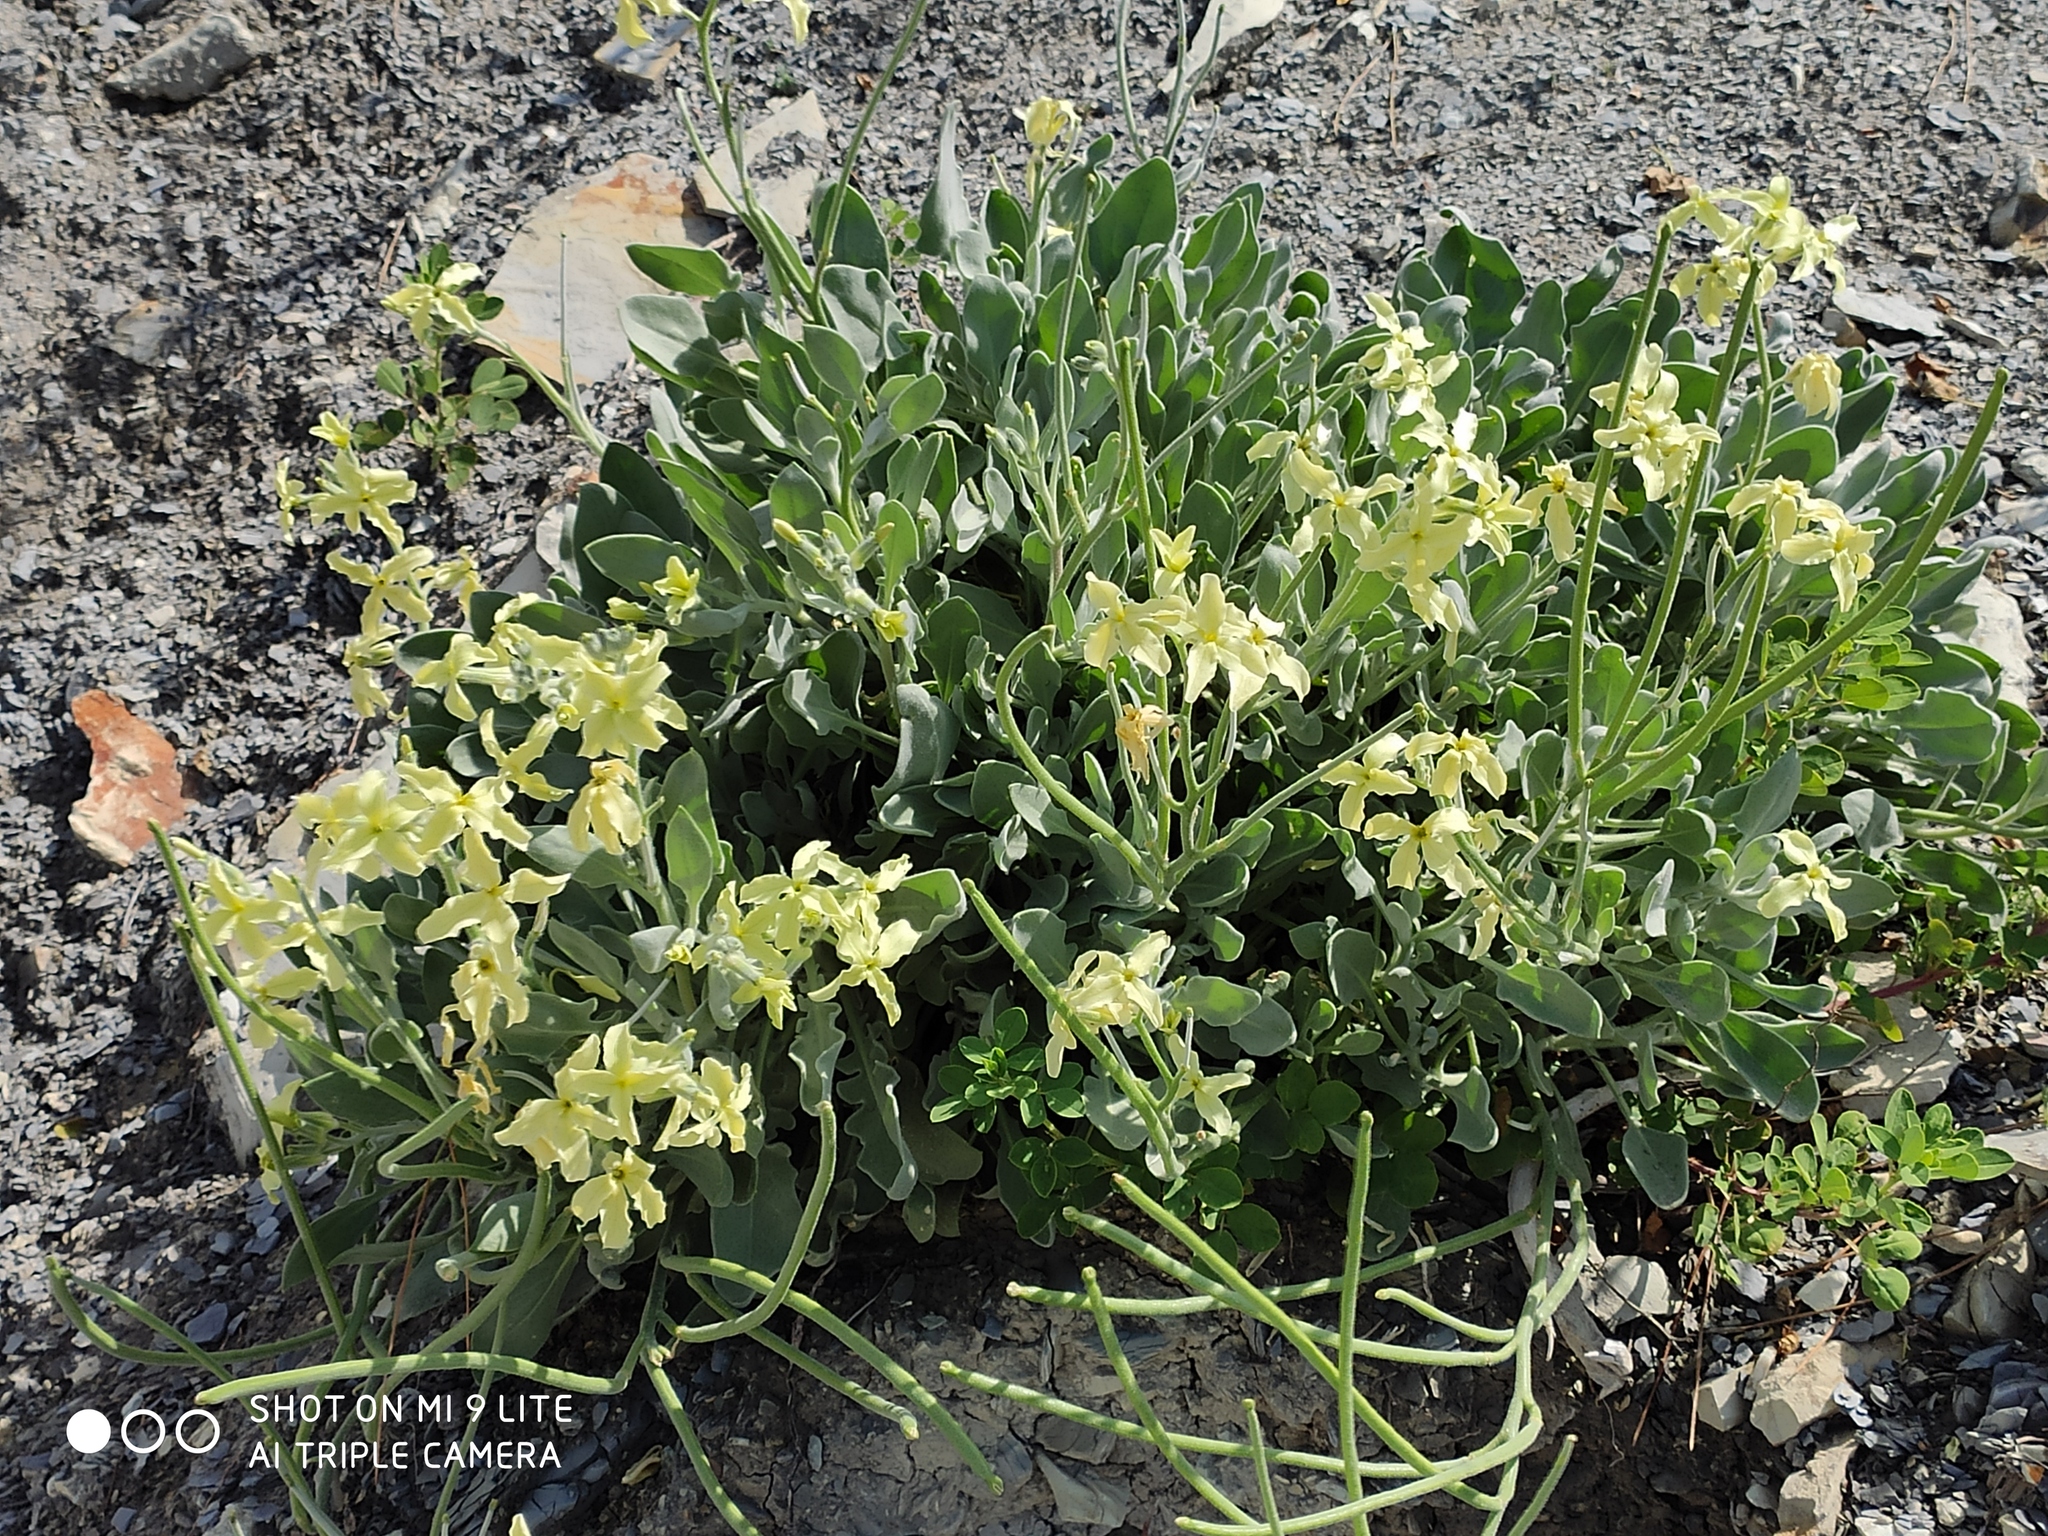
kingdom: Plantae
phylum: Tracheophyta
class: Magnoliopsida
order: Brassicales
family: Brassicaceae
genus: Matthiola
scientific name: Matthiola odoratissima
